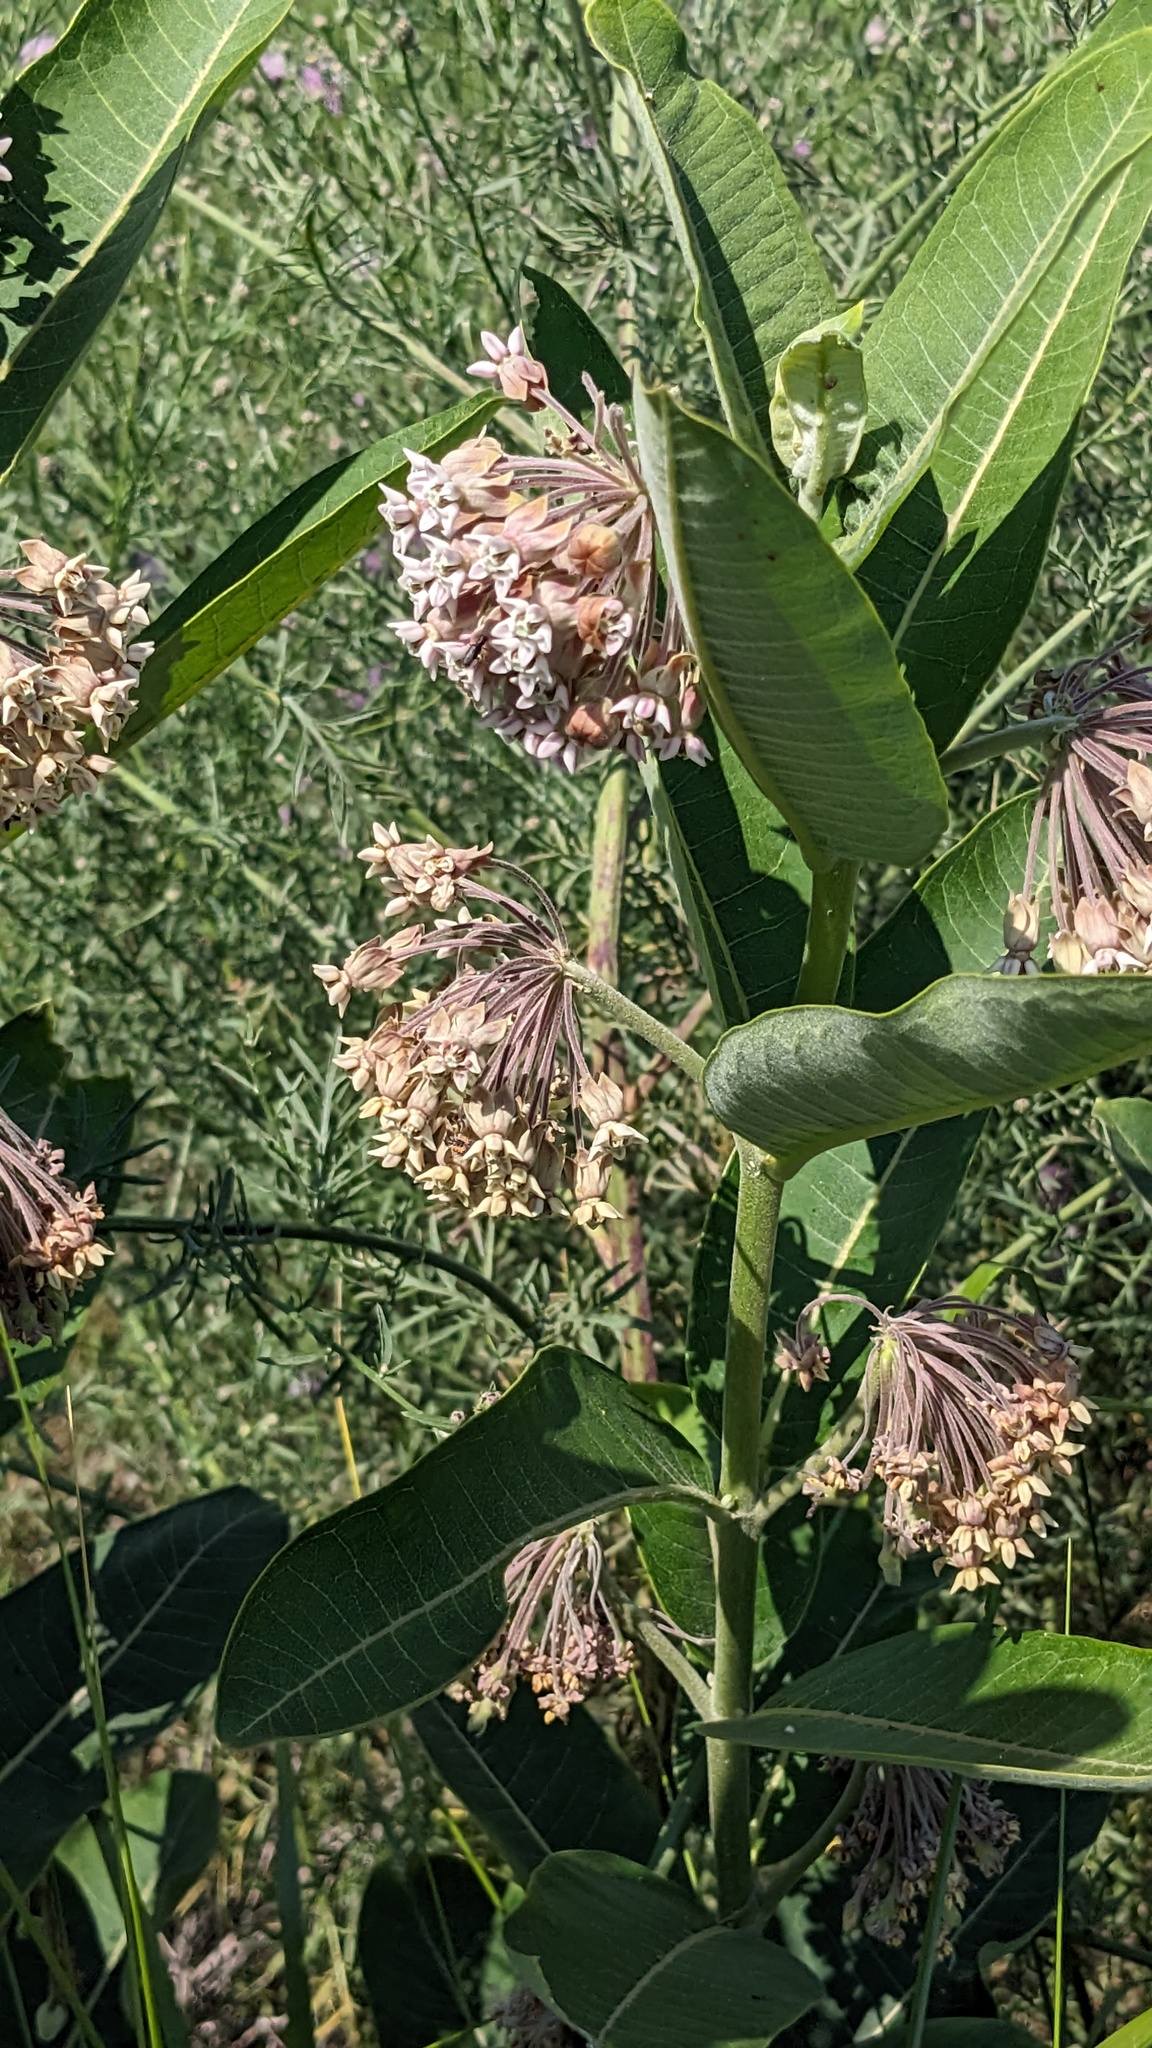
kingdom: Plantae
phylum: Tracheophyta
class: Magnoliopsida
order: Gentianales
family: Apocynaceae
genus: Asclepias
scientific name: Asclepias syriaca
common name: Common milkweed
